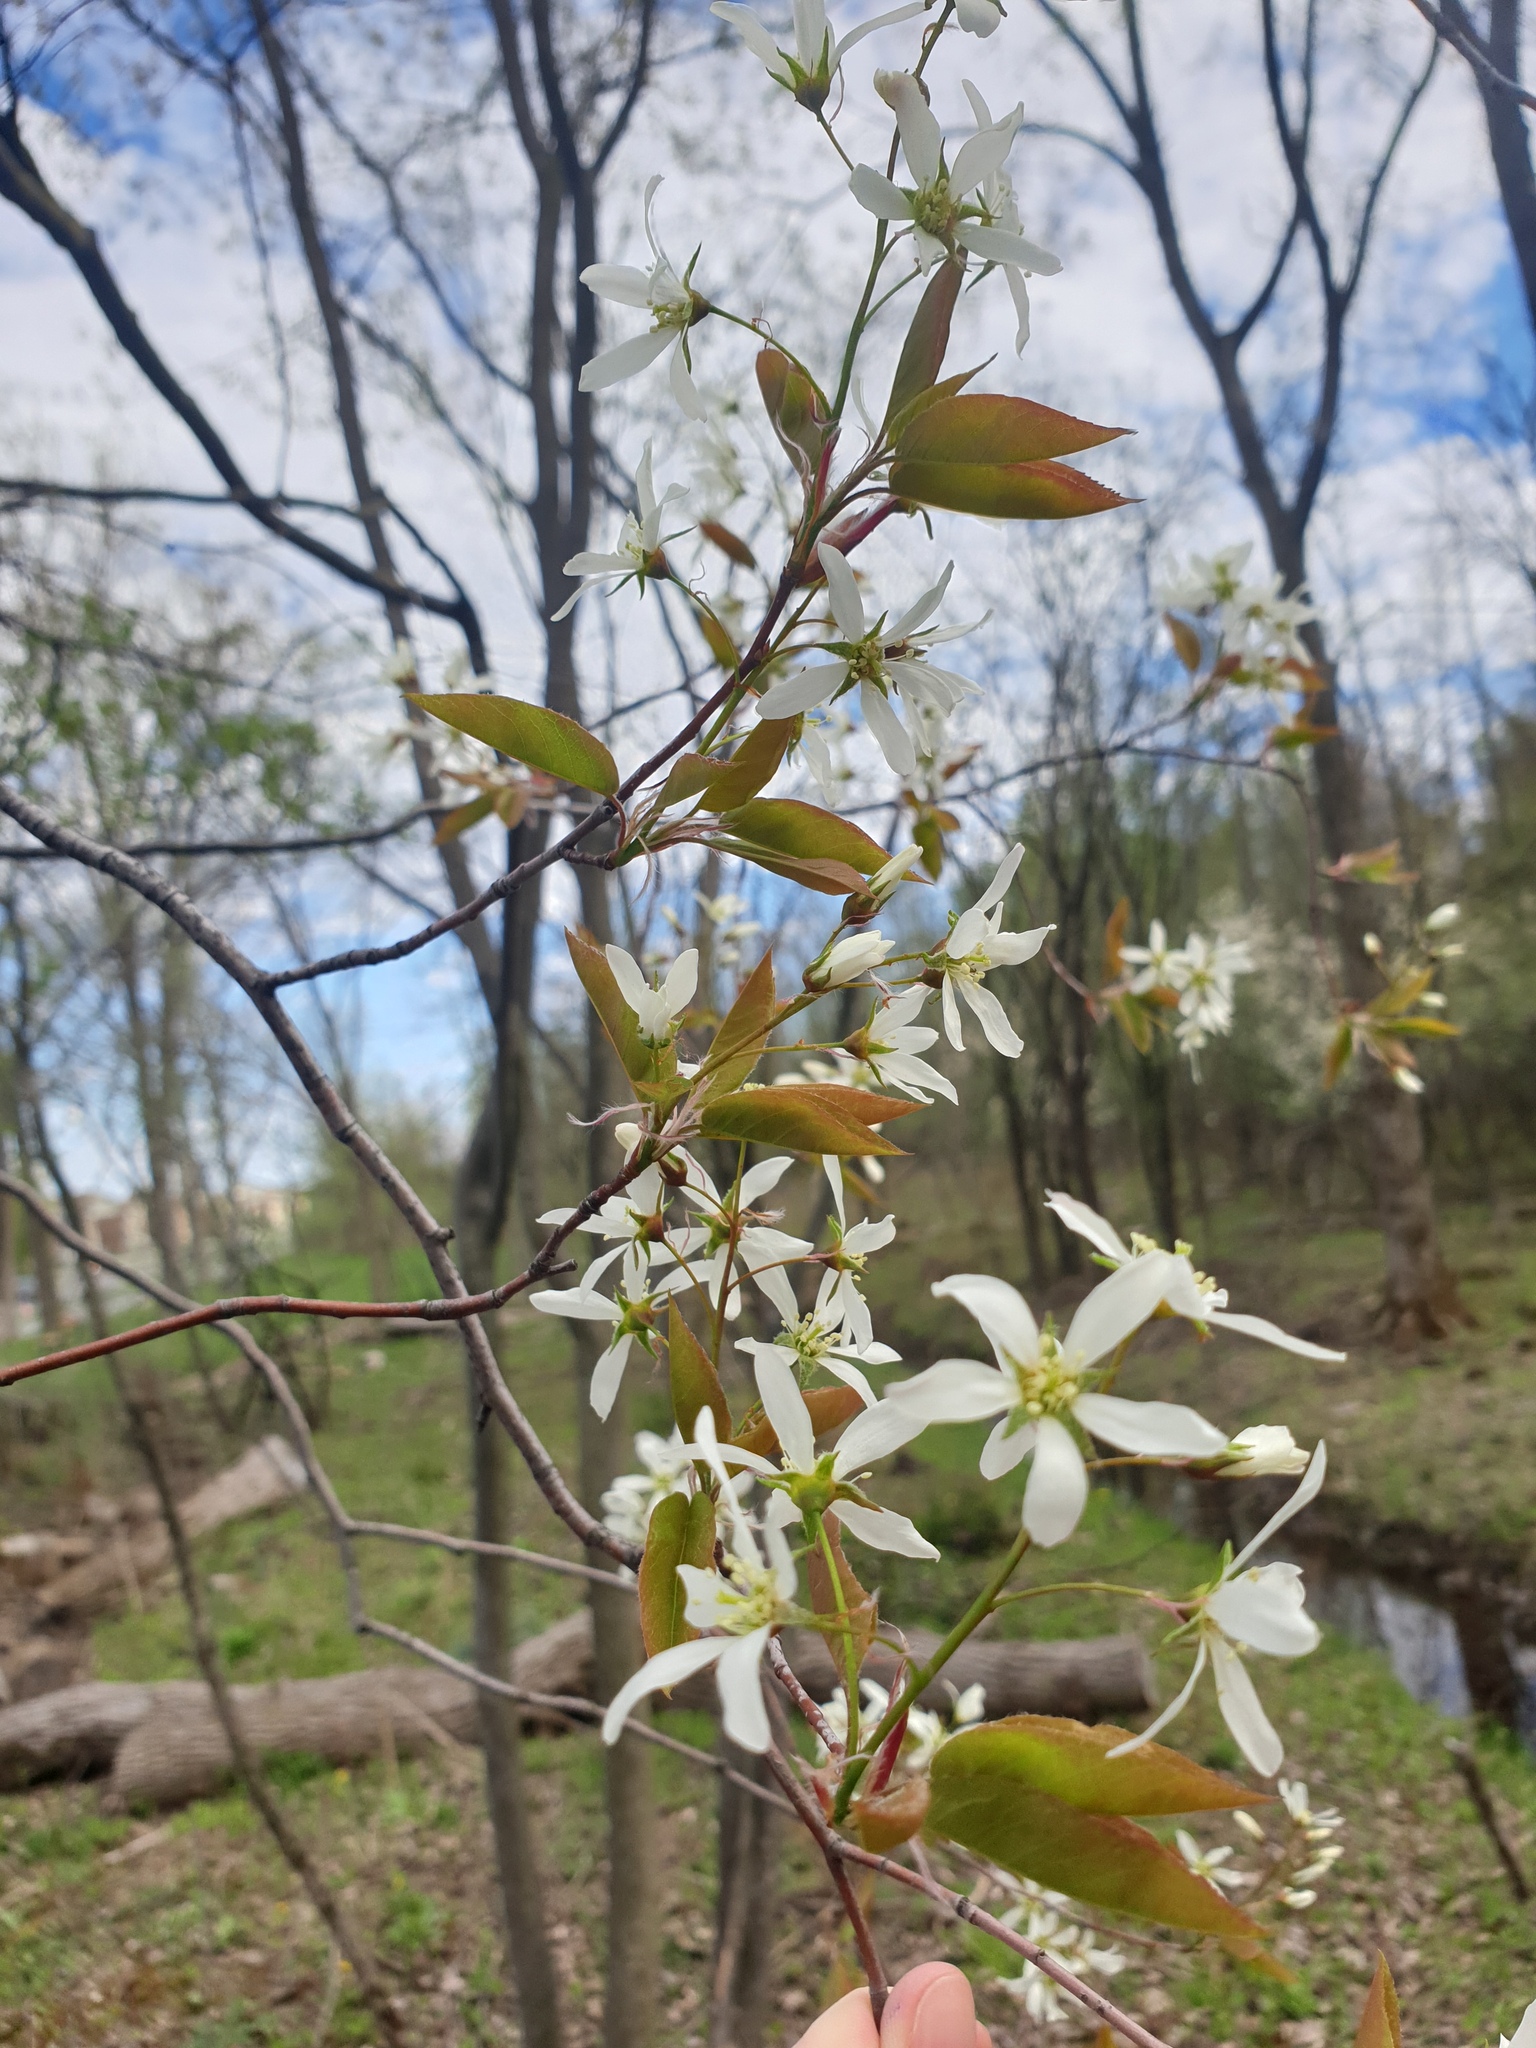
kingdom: Plantae
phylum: Tracheophyta
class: Magnoliopsida
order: Rosales
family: Rosaceae
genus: Amelanchier
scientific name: Amelanchier laevis
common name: Allegheny serviceberry
